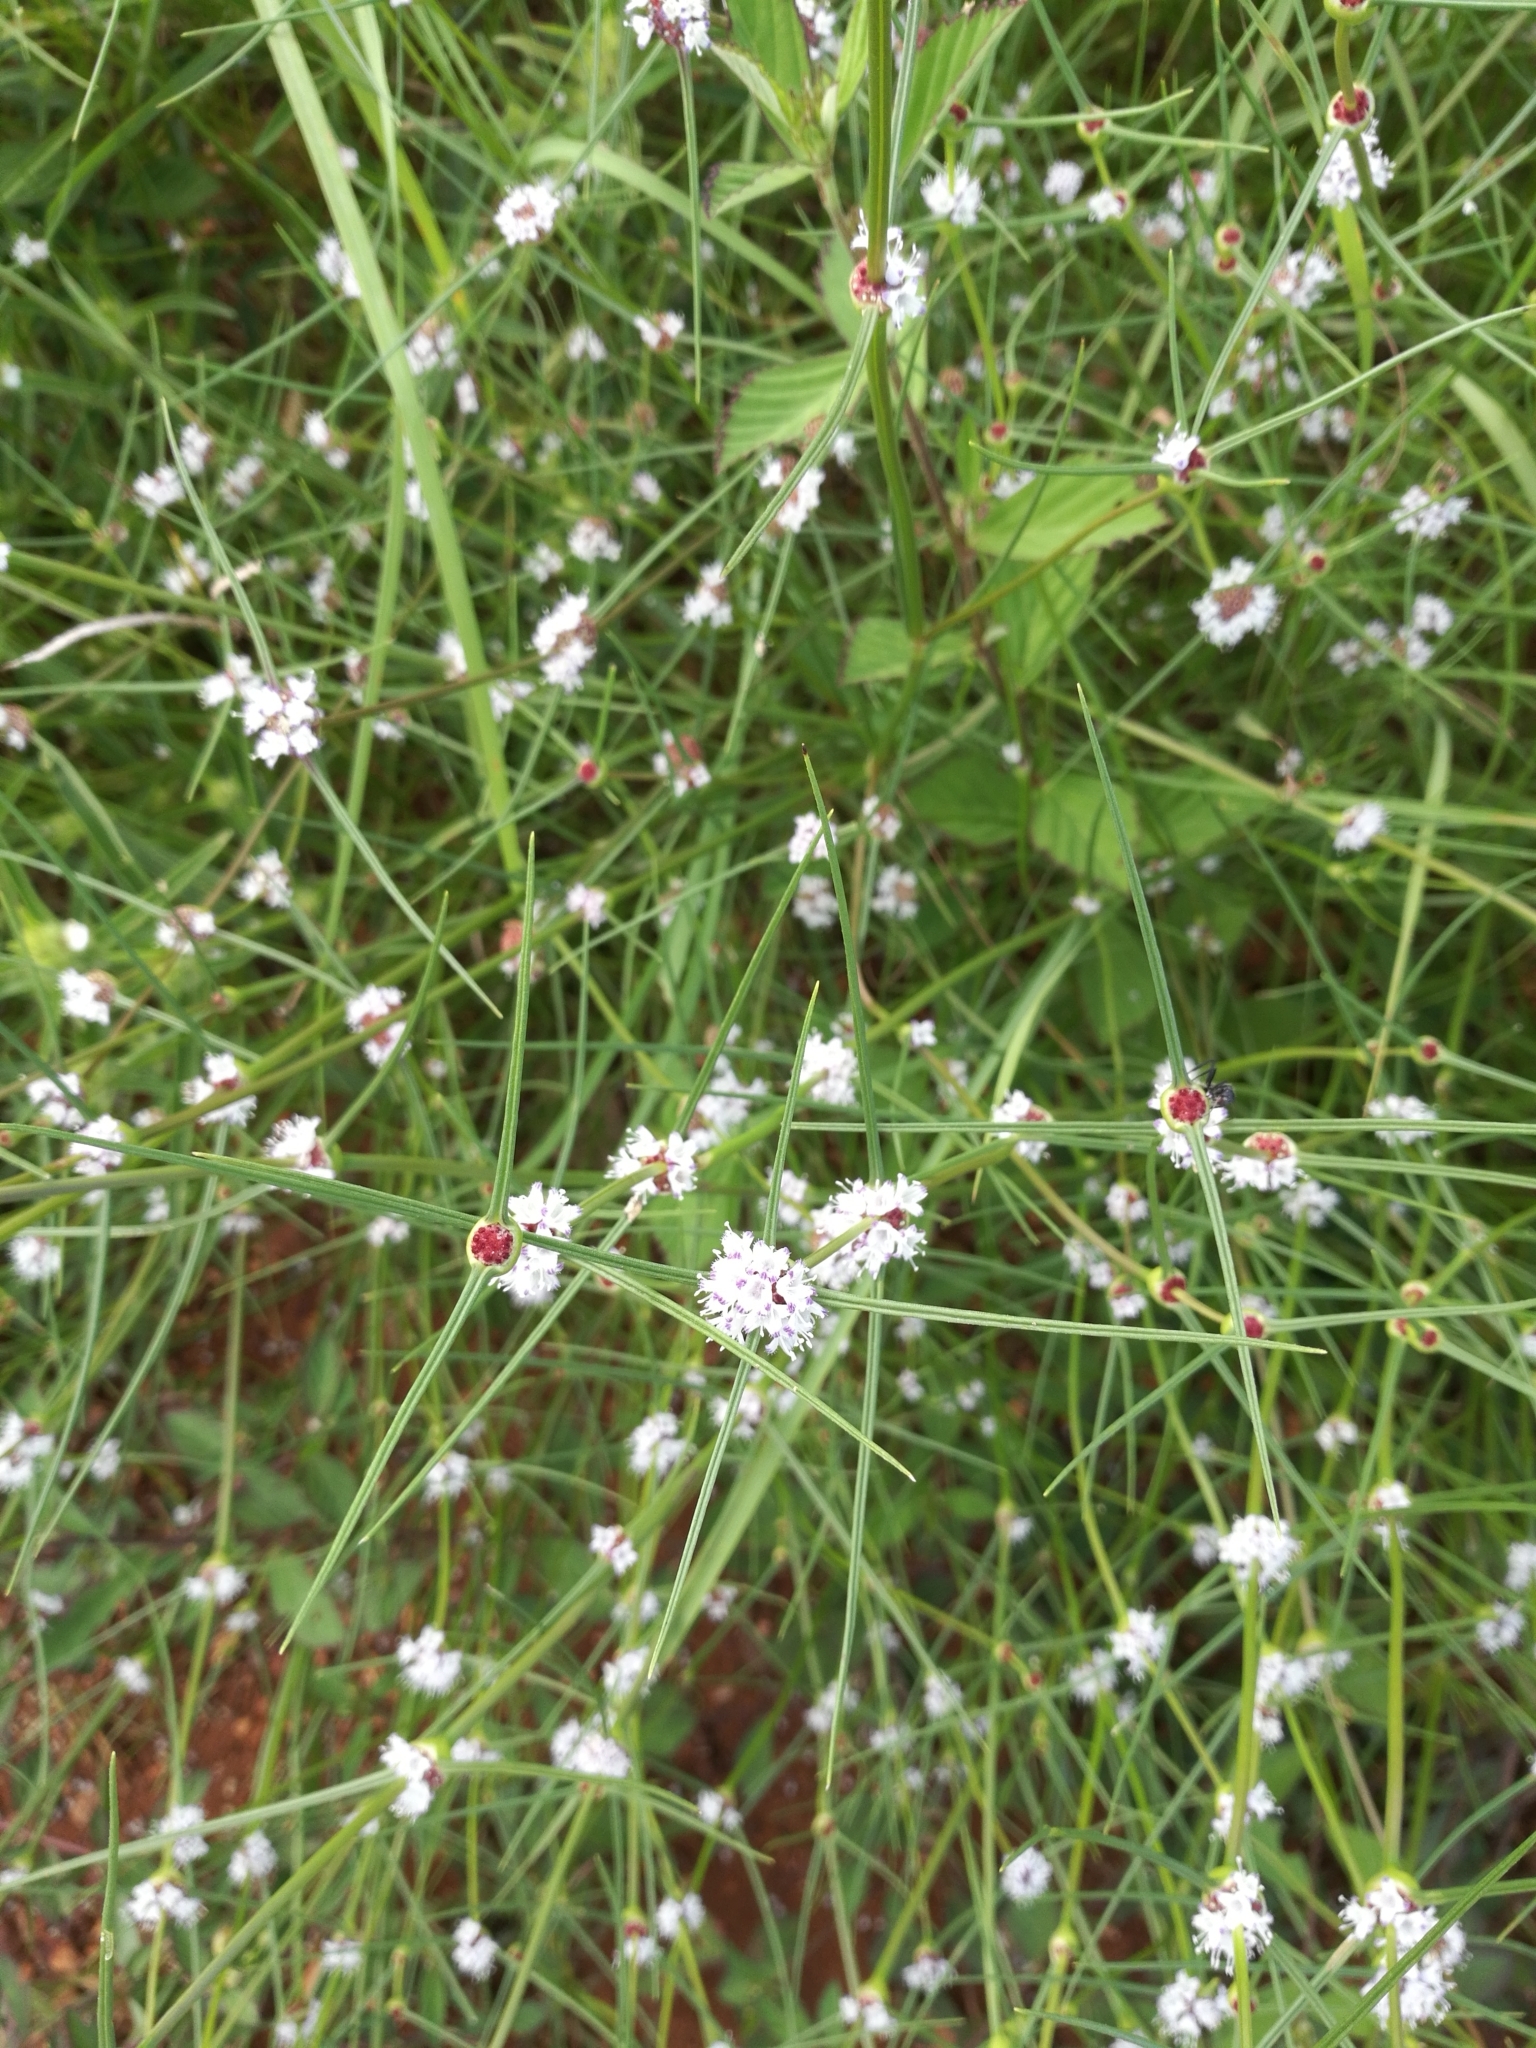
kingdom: Plantae
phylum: Tracheophyta
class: Magnoliopsida
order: Gentianales
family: Rubiaceae
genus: Spermacoce
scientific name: Spermacoce filifolia
